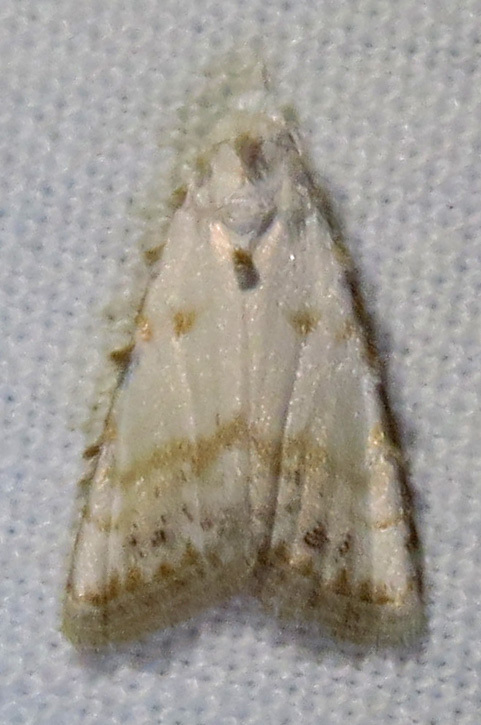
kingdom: Animalia
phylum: Arthropoda
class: Insecta
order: Lepidoptera
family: Nolidae
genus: Nola
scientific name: Nola cereella
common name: Sorghum webworm moth
